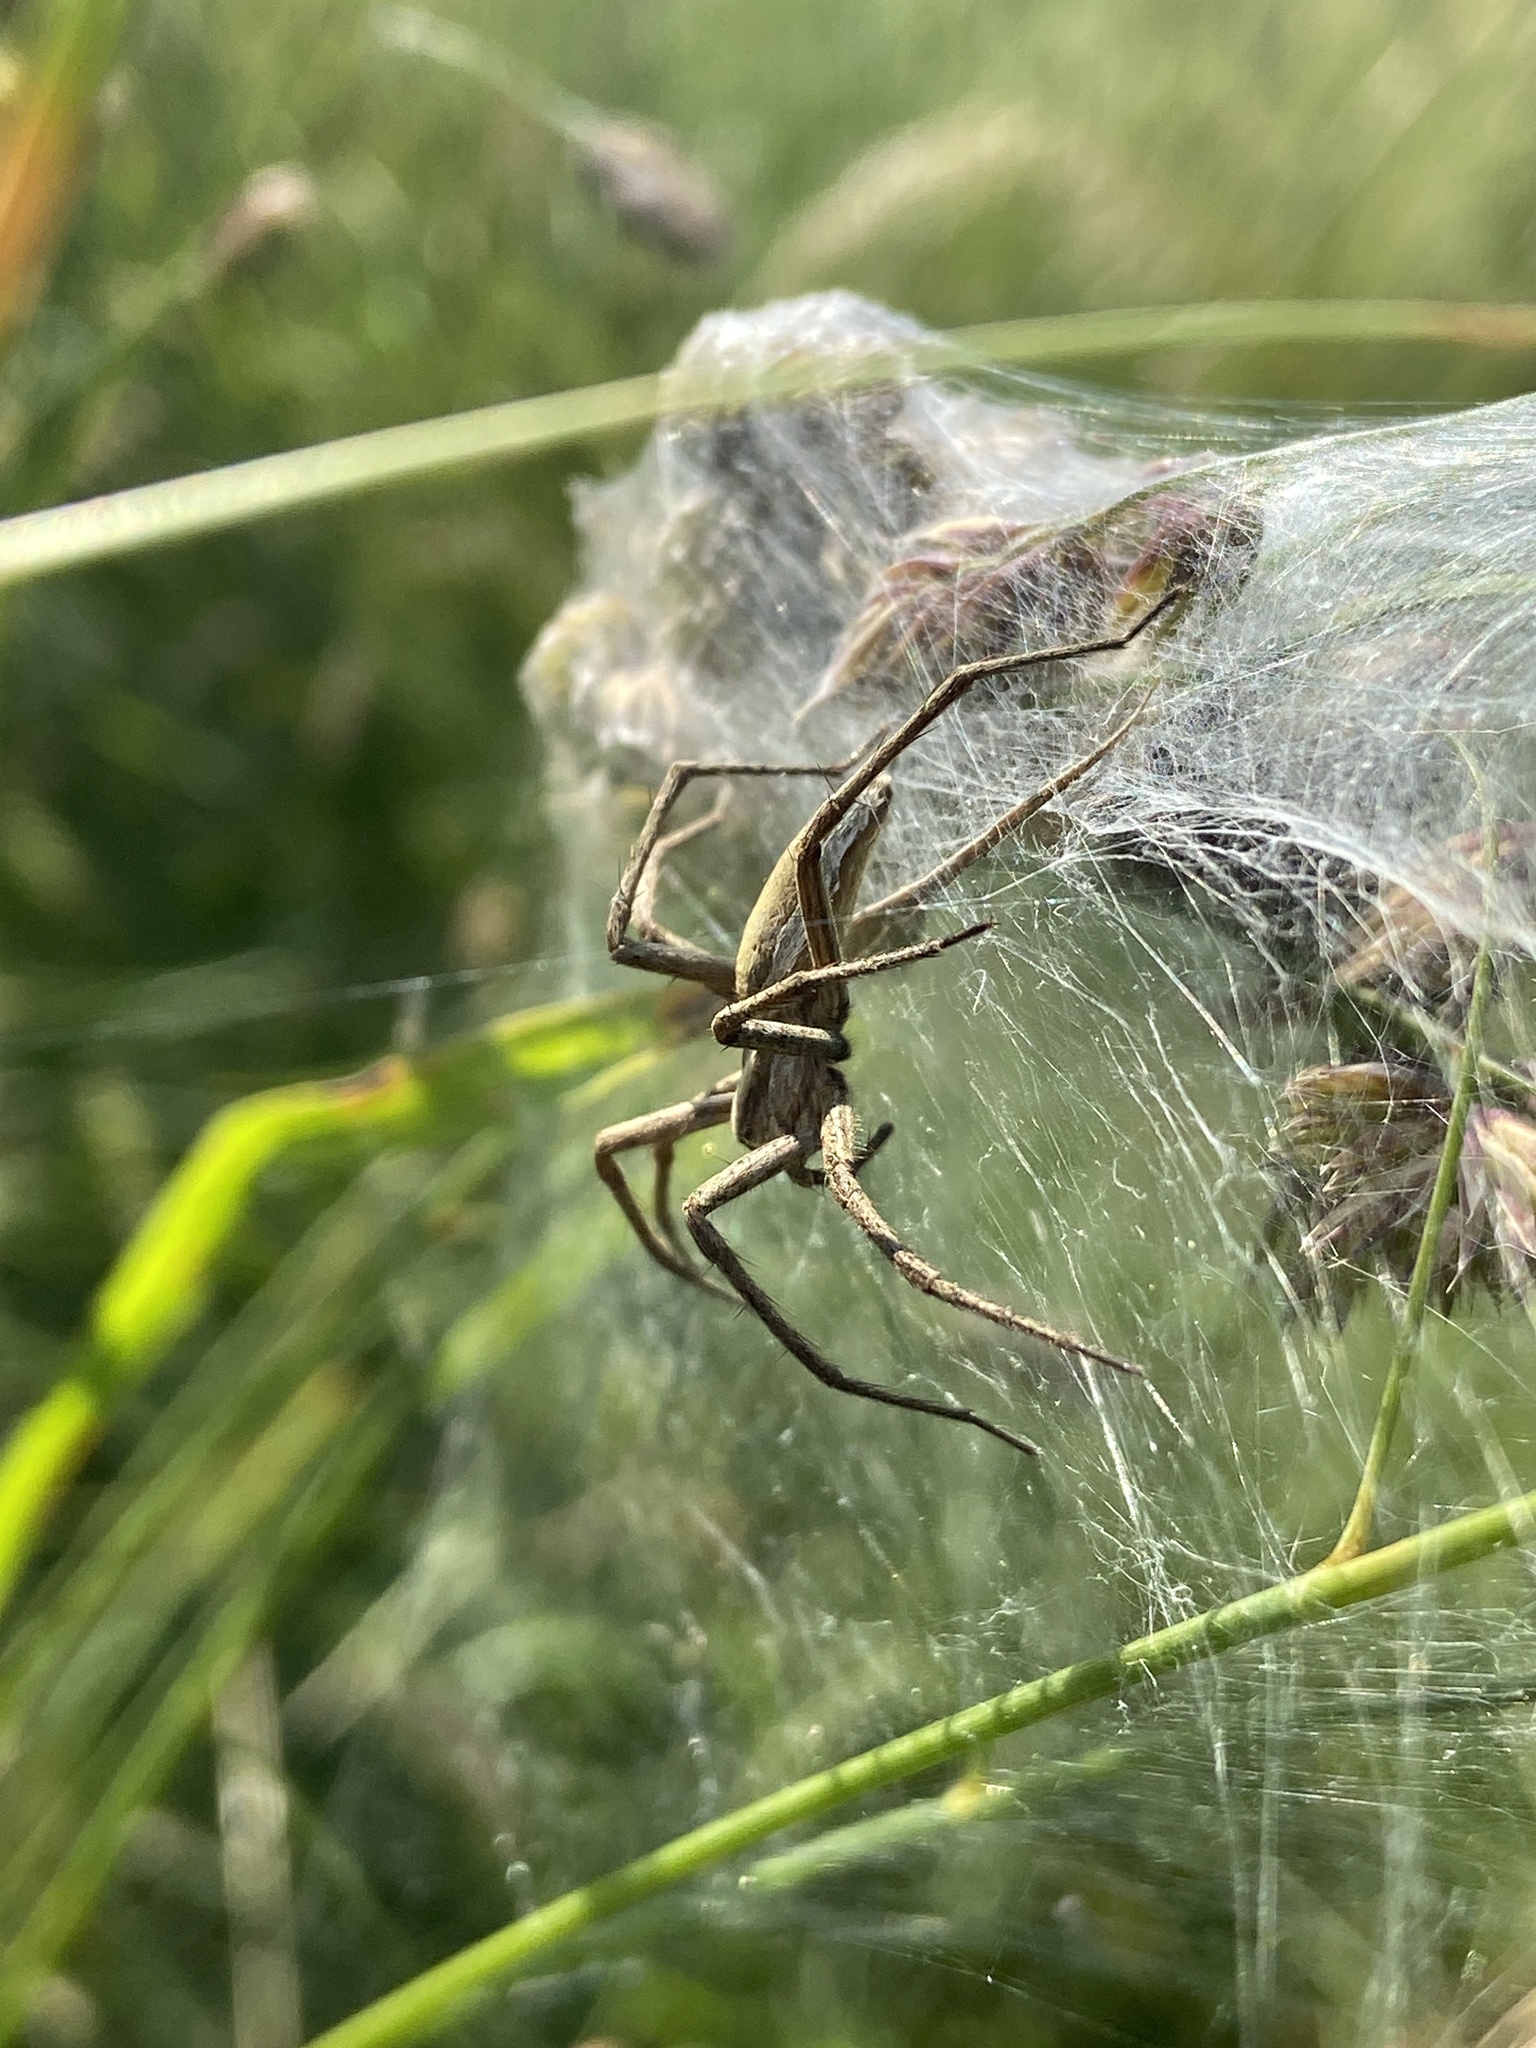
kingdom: Animalia
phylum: Arthropoda
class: Arachnida
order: Araneae
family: Pisauridae
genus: Pisaura
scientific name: Pisaura mirabilis
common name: Tent spider
